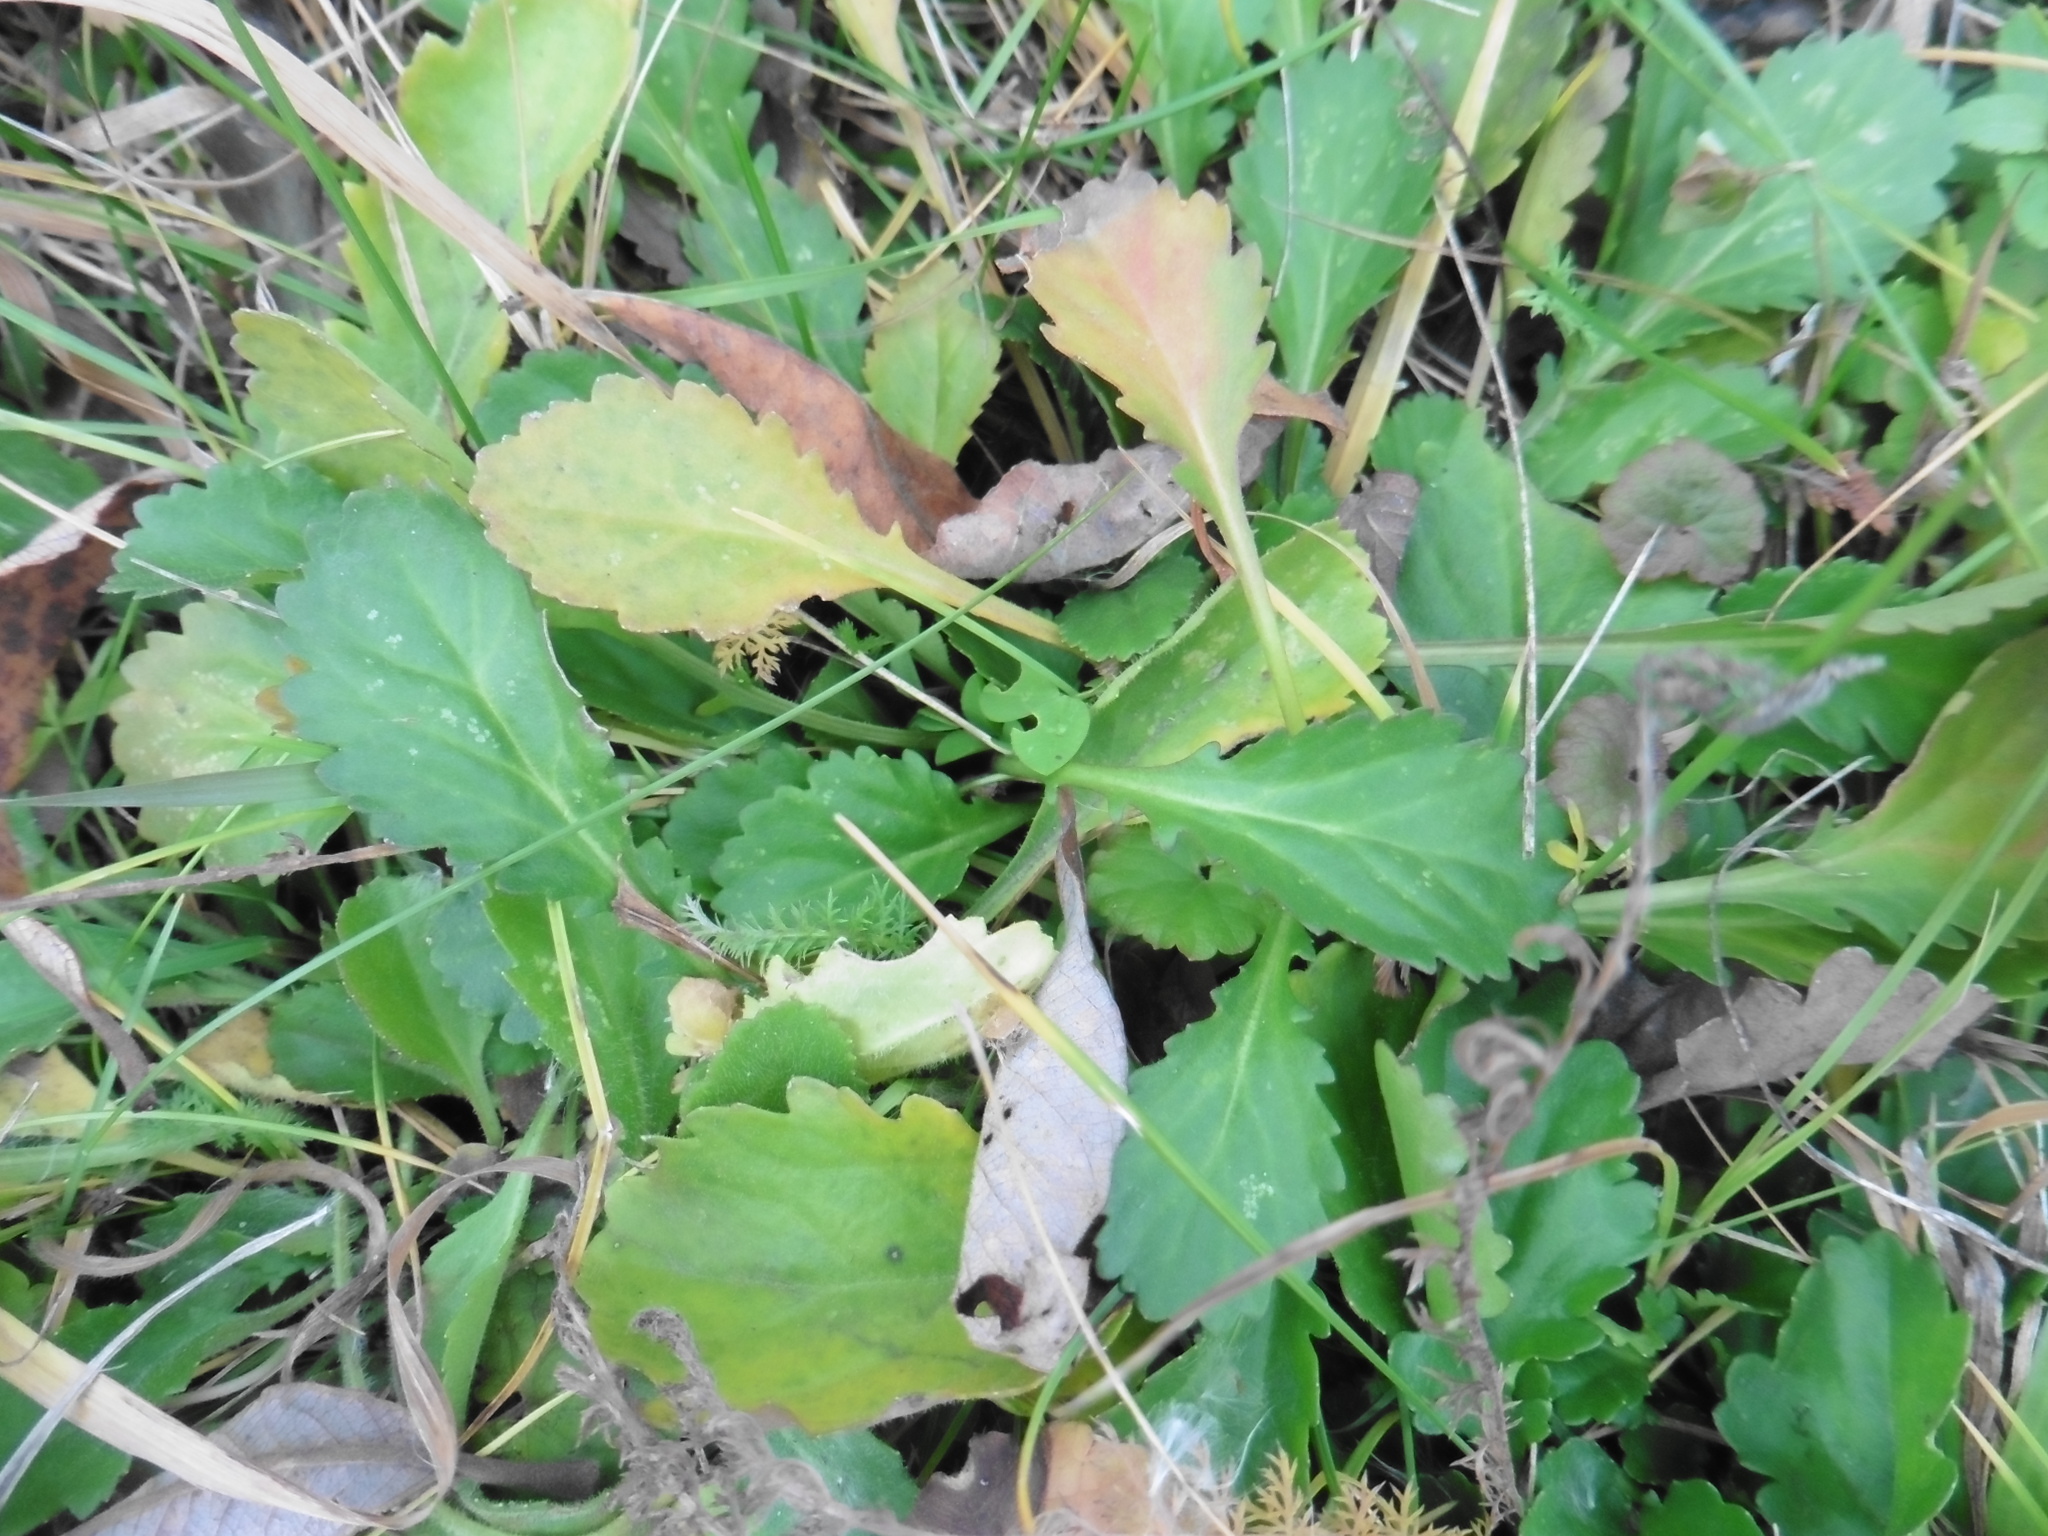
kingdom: Plantae
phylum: Tracheophyta
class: Magnoliopsida
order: Asterales
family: Asteraceae
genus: Leucanthemum
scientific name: Leucanthemum vulgare
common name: Oxeye daisy
